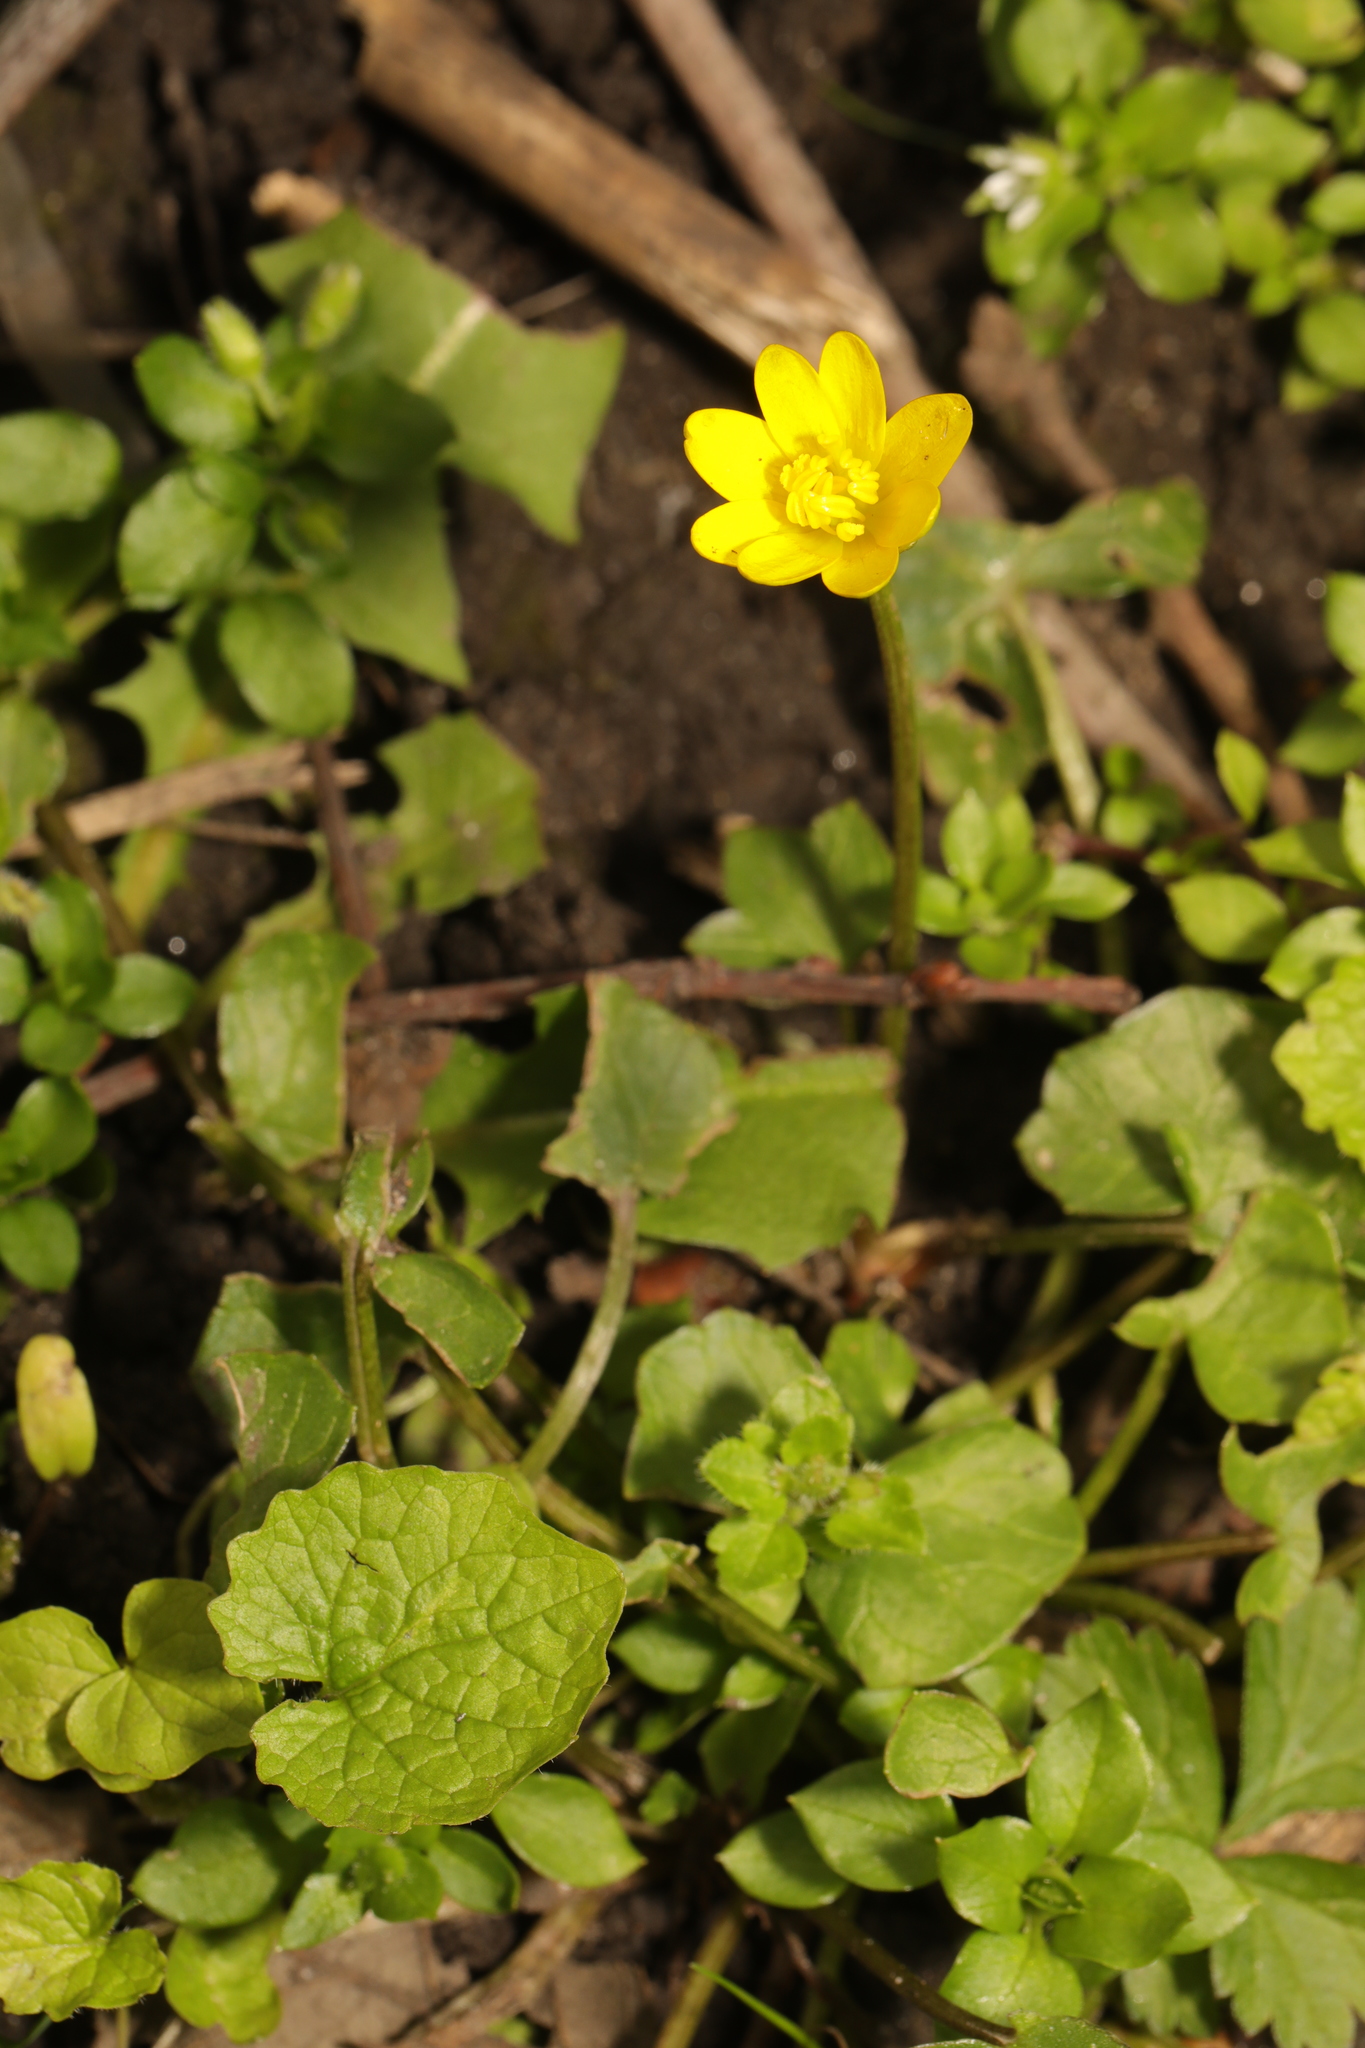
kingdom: Plantae
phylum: Tracheophyta
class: Magnoliopsida
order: Ranunculales
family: Ranunculaceae
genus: Ficaria
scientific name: Ficaria verna
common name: Lesser celandine
